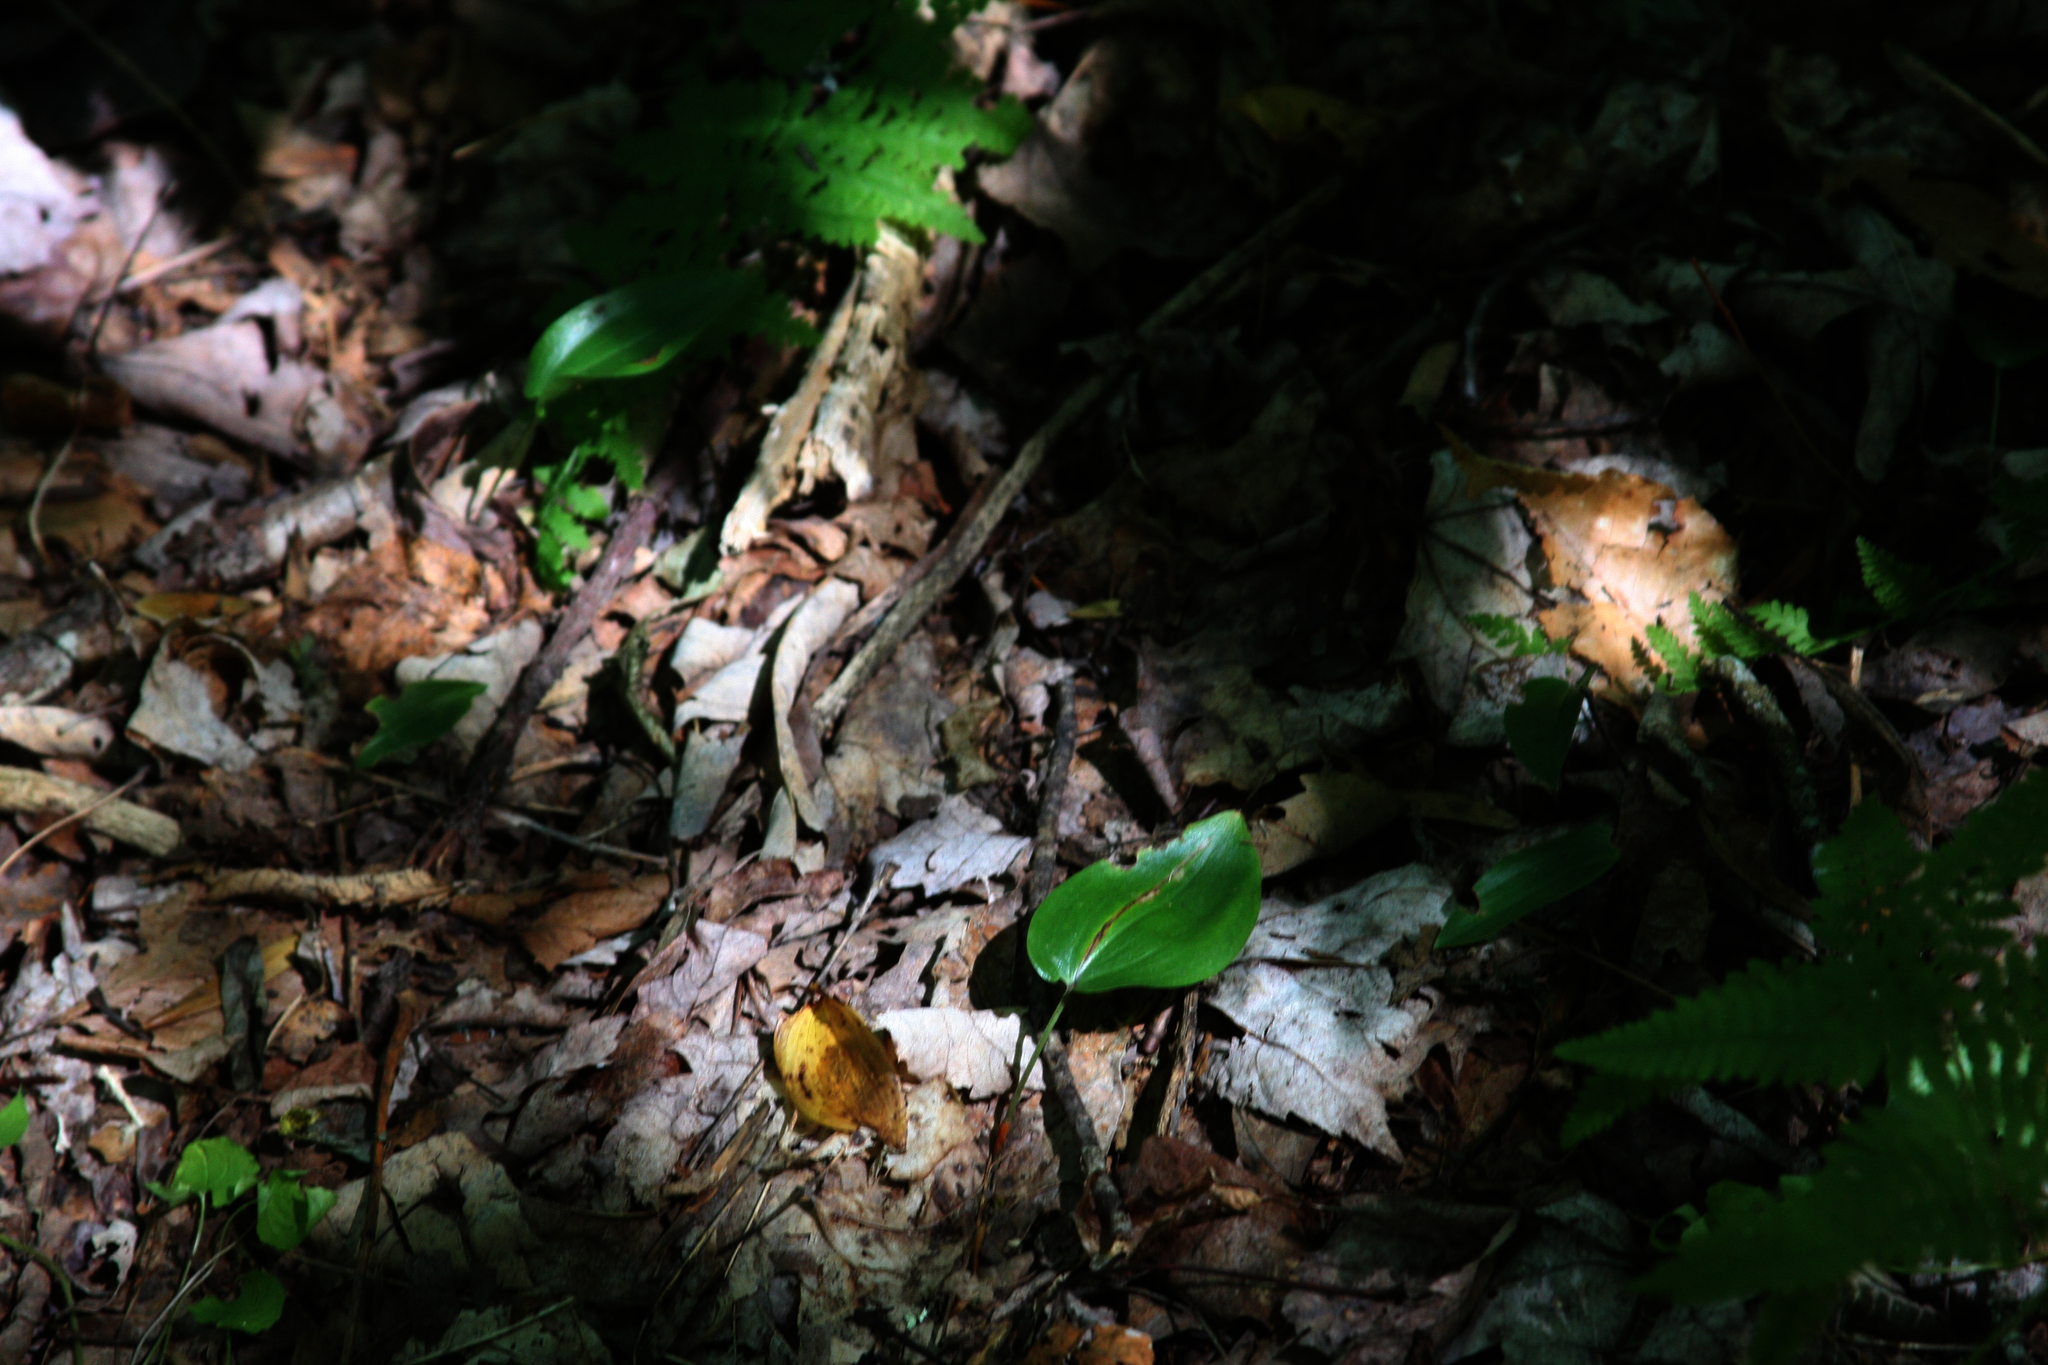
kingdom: Plantae
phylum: Tracheophyta
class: Liliopsida
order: Asparagales
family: Asparagaceae
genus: Maianthemum
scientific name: Maianthemum canadense
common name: False lily-of-the-valley
